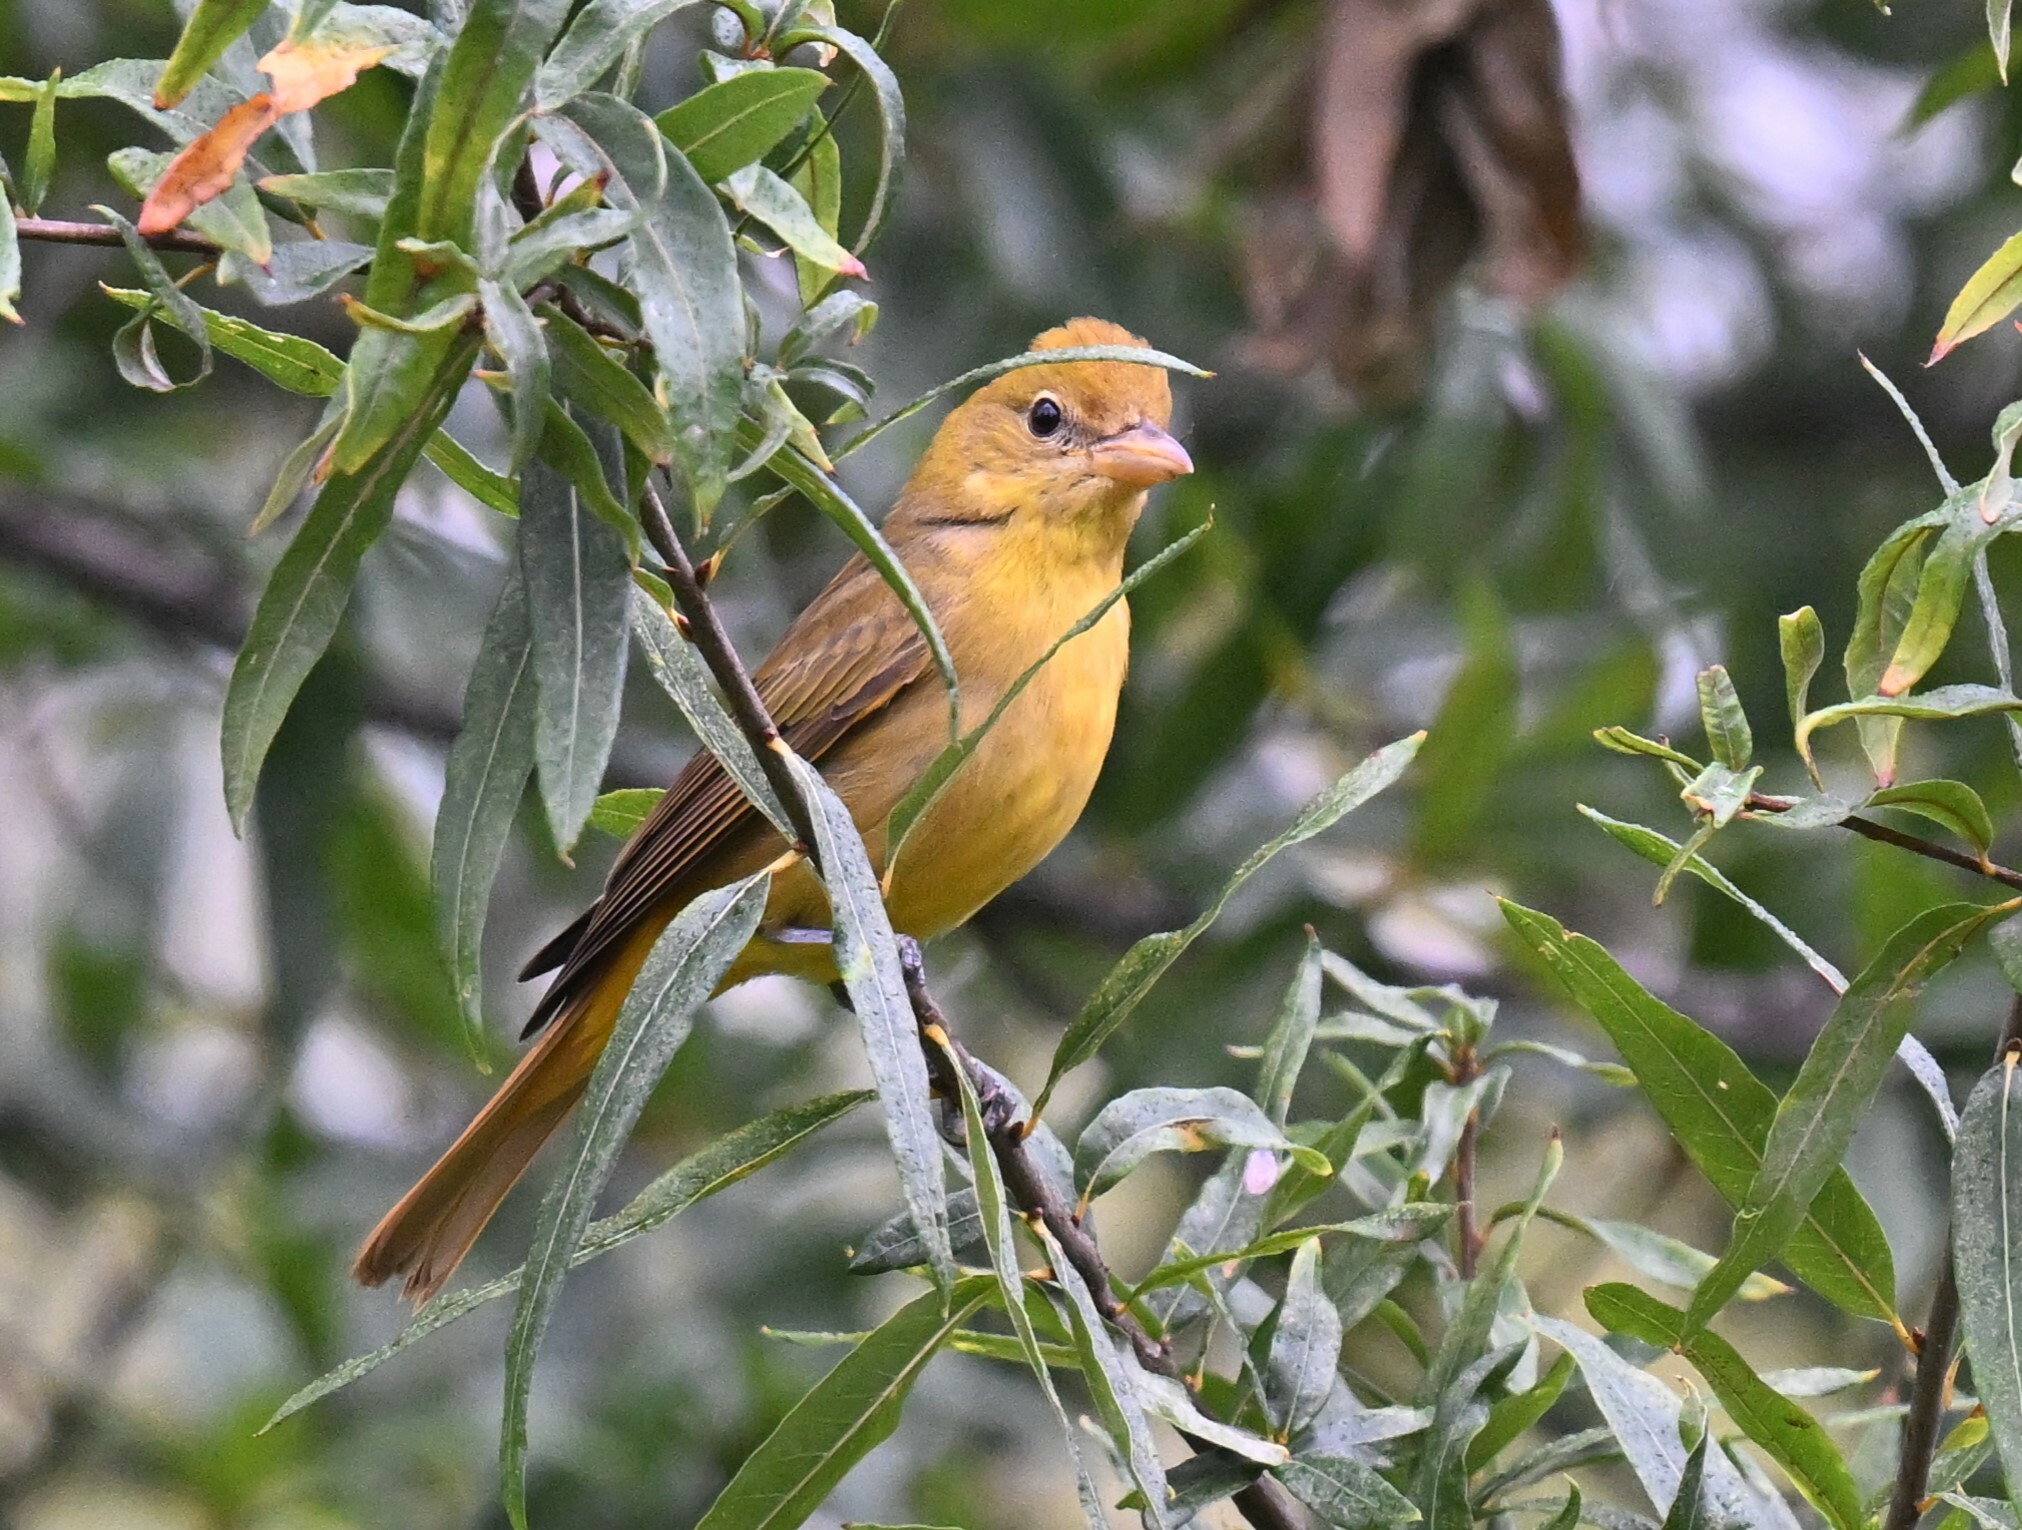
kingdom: Animalia
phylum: Chordata
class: Aves
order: Passeriformes
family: Cardinalidae
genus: Piranga
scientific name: Piranga rubra
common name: Summer tanager
